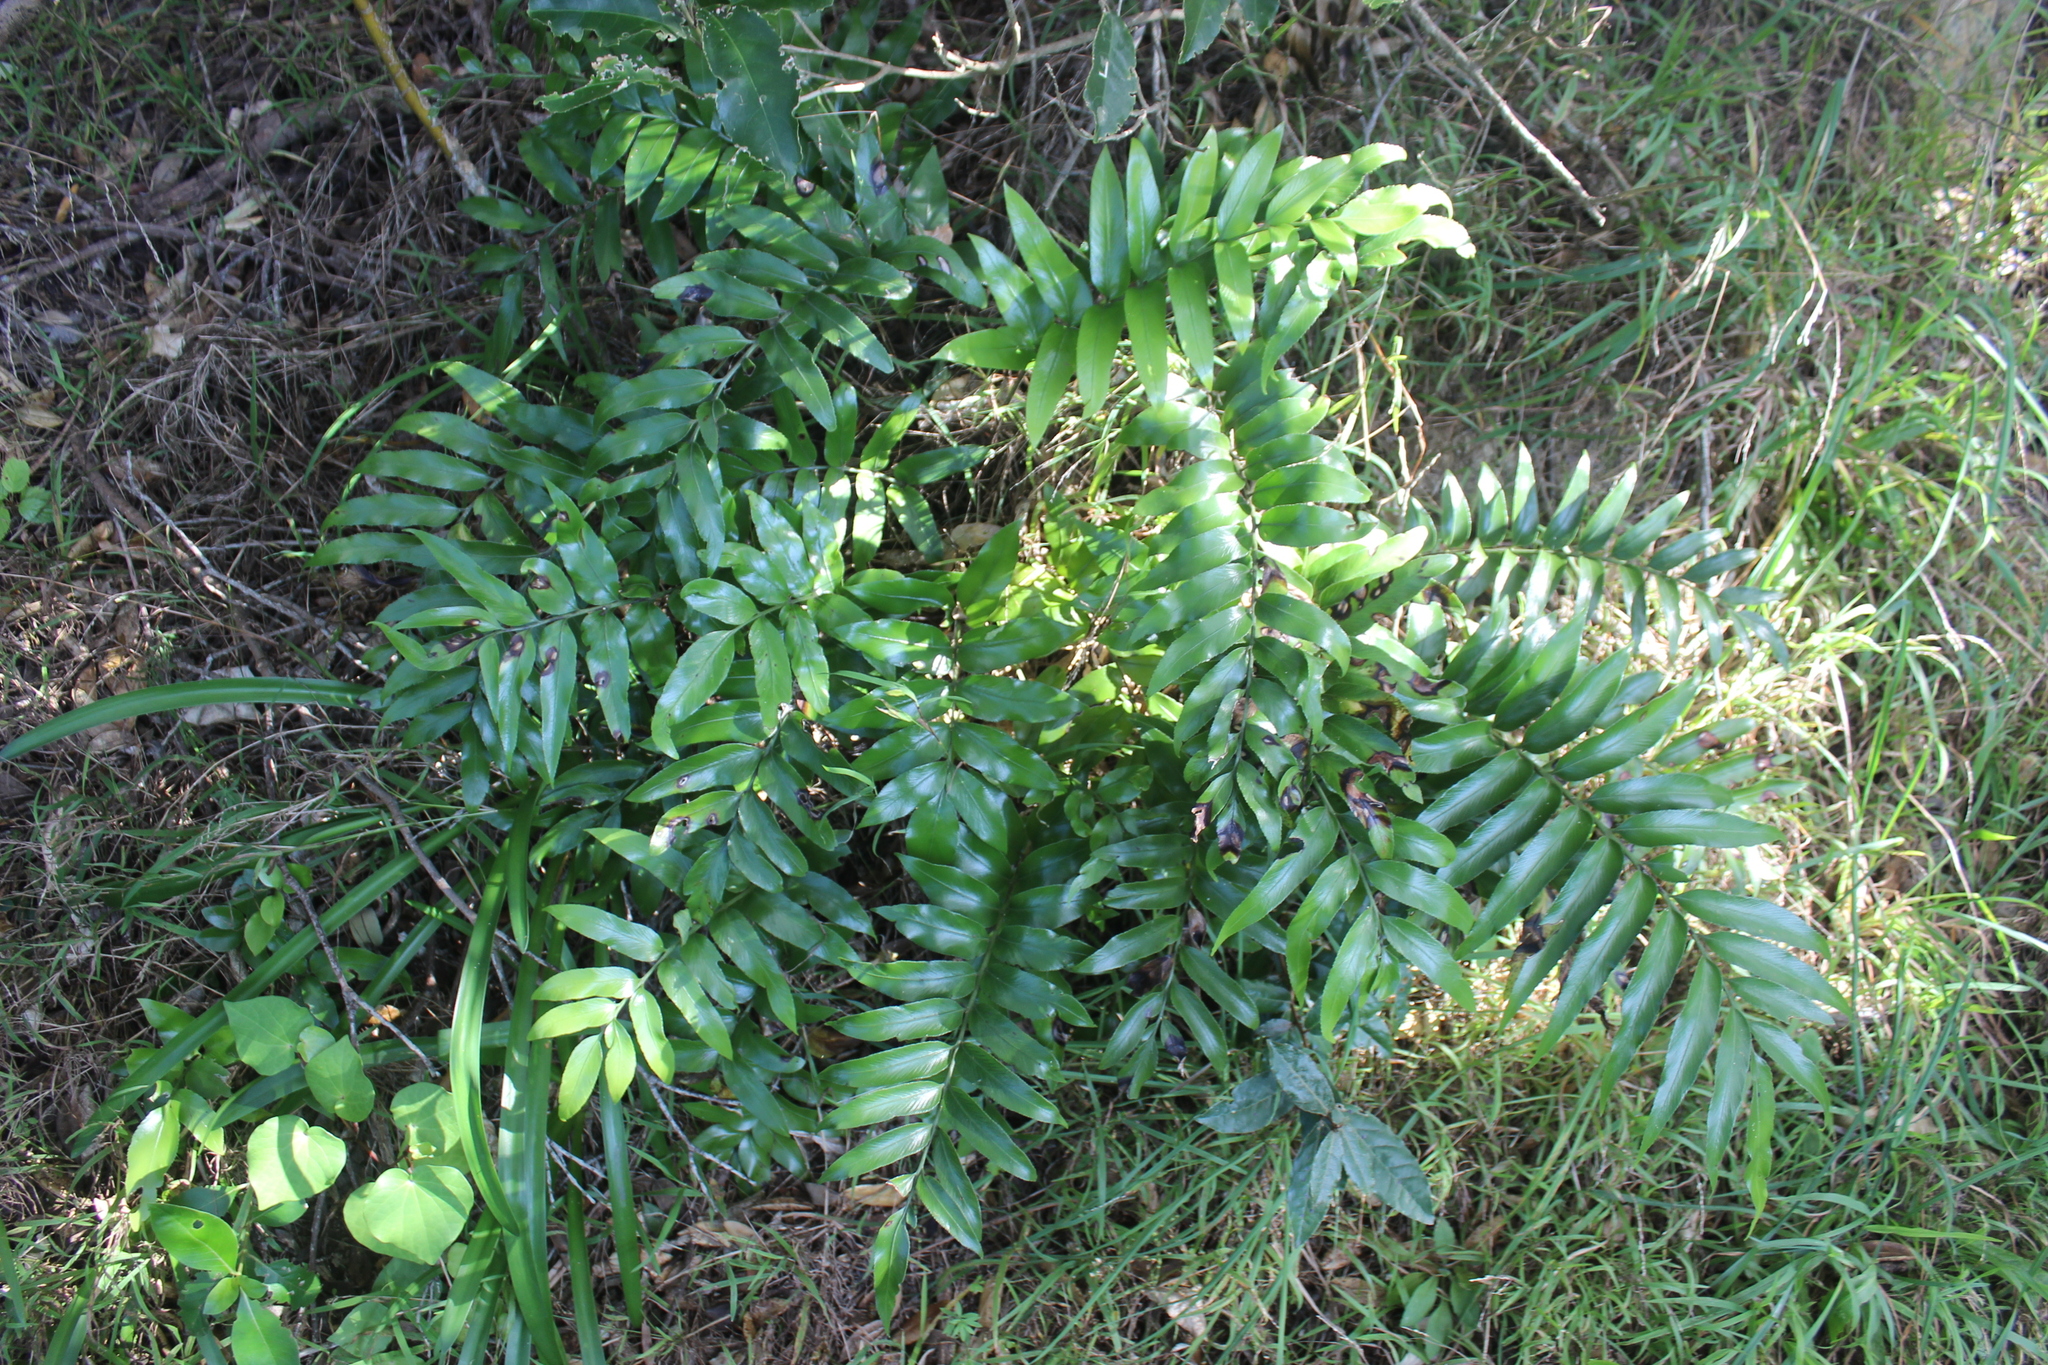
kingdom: Plantae
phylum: Tracheophyta
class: Polypodiopsida
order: Polypodiales
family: Aspleniaceae
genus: Asplenium
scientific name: Asplenium oblongifolium
